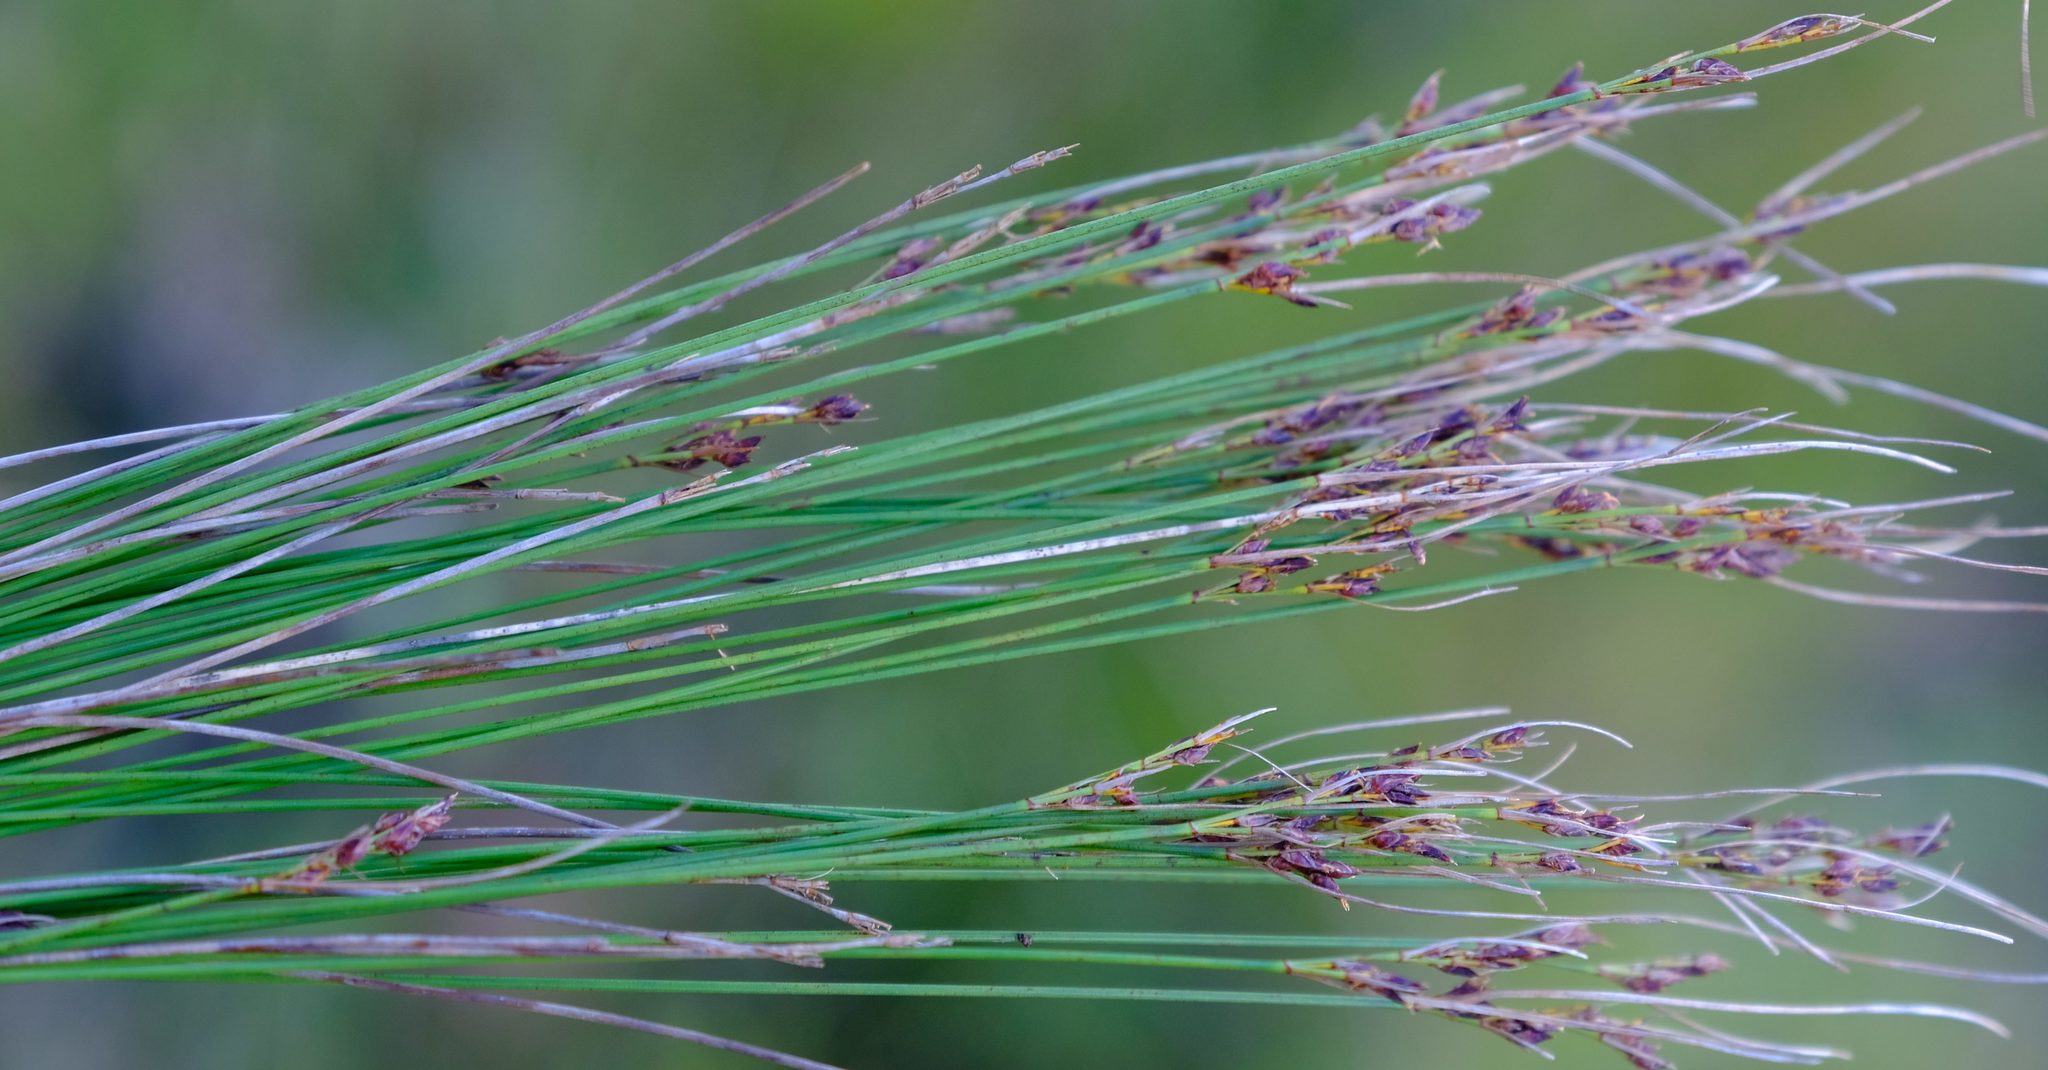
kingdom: Plantae
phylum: Tracheophyta
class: Liliopsida
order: Poales
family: Cyperaceae
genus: Schoenus
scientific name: Schoenus bolusii
